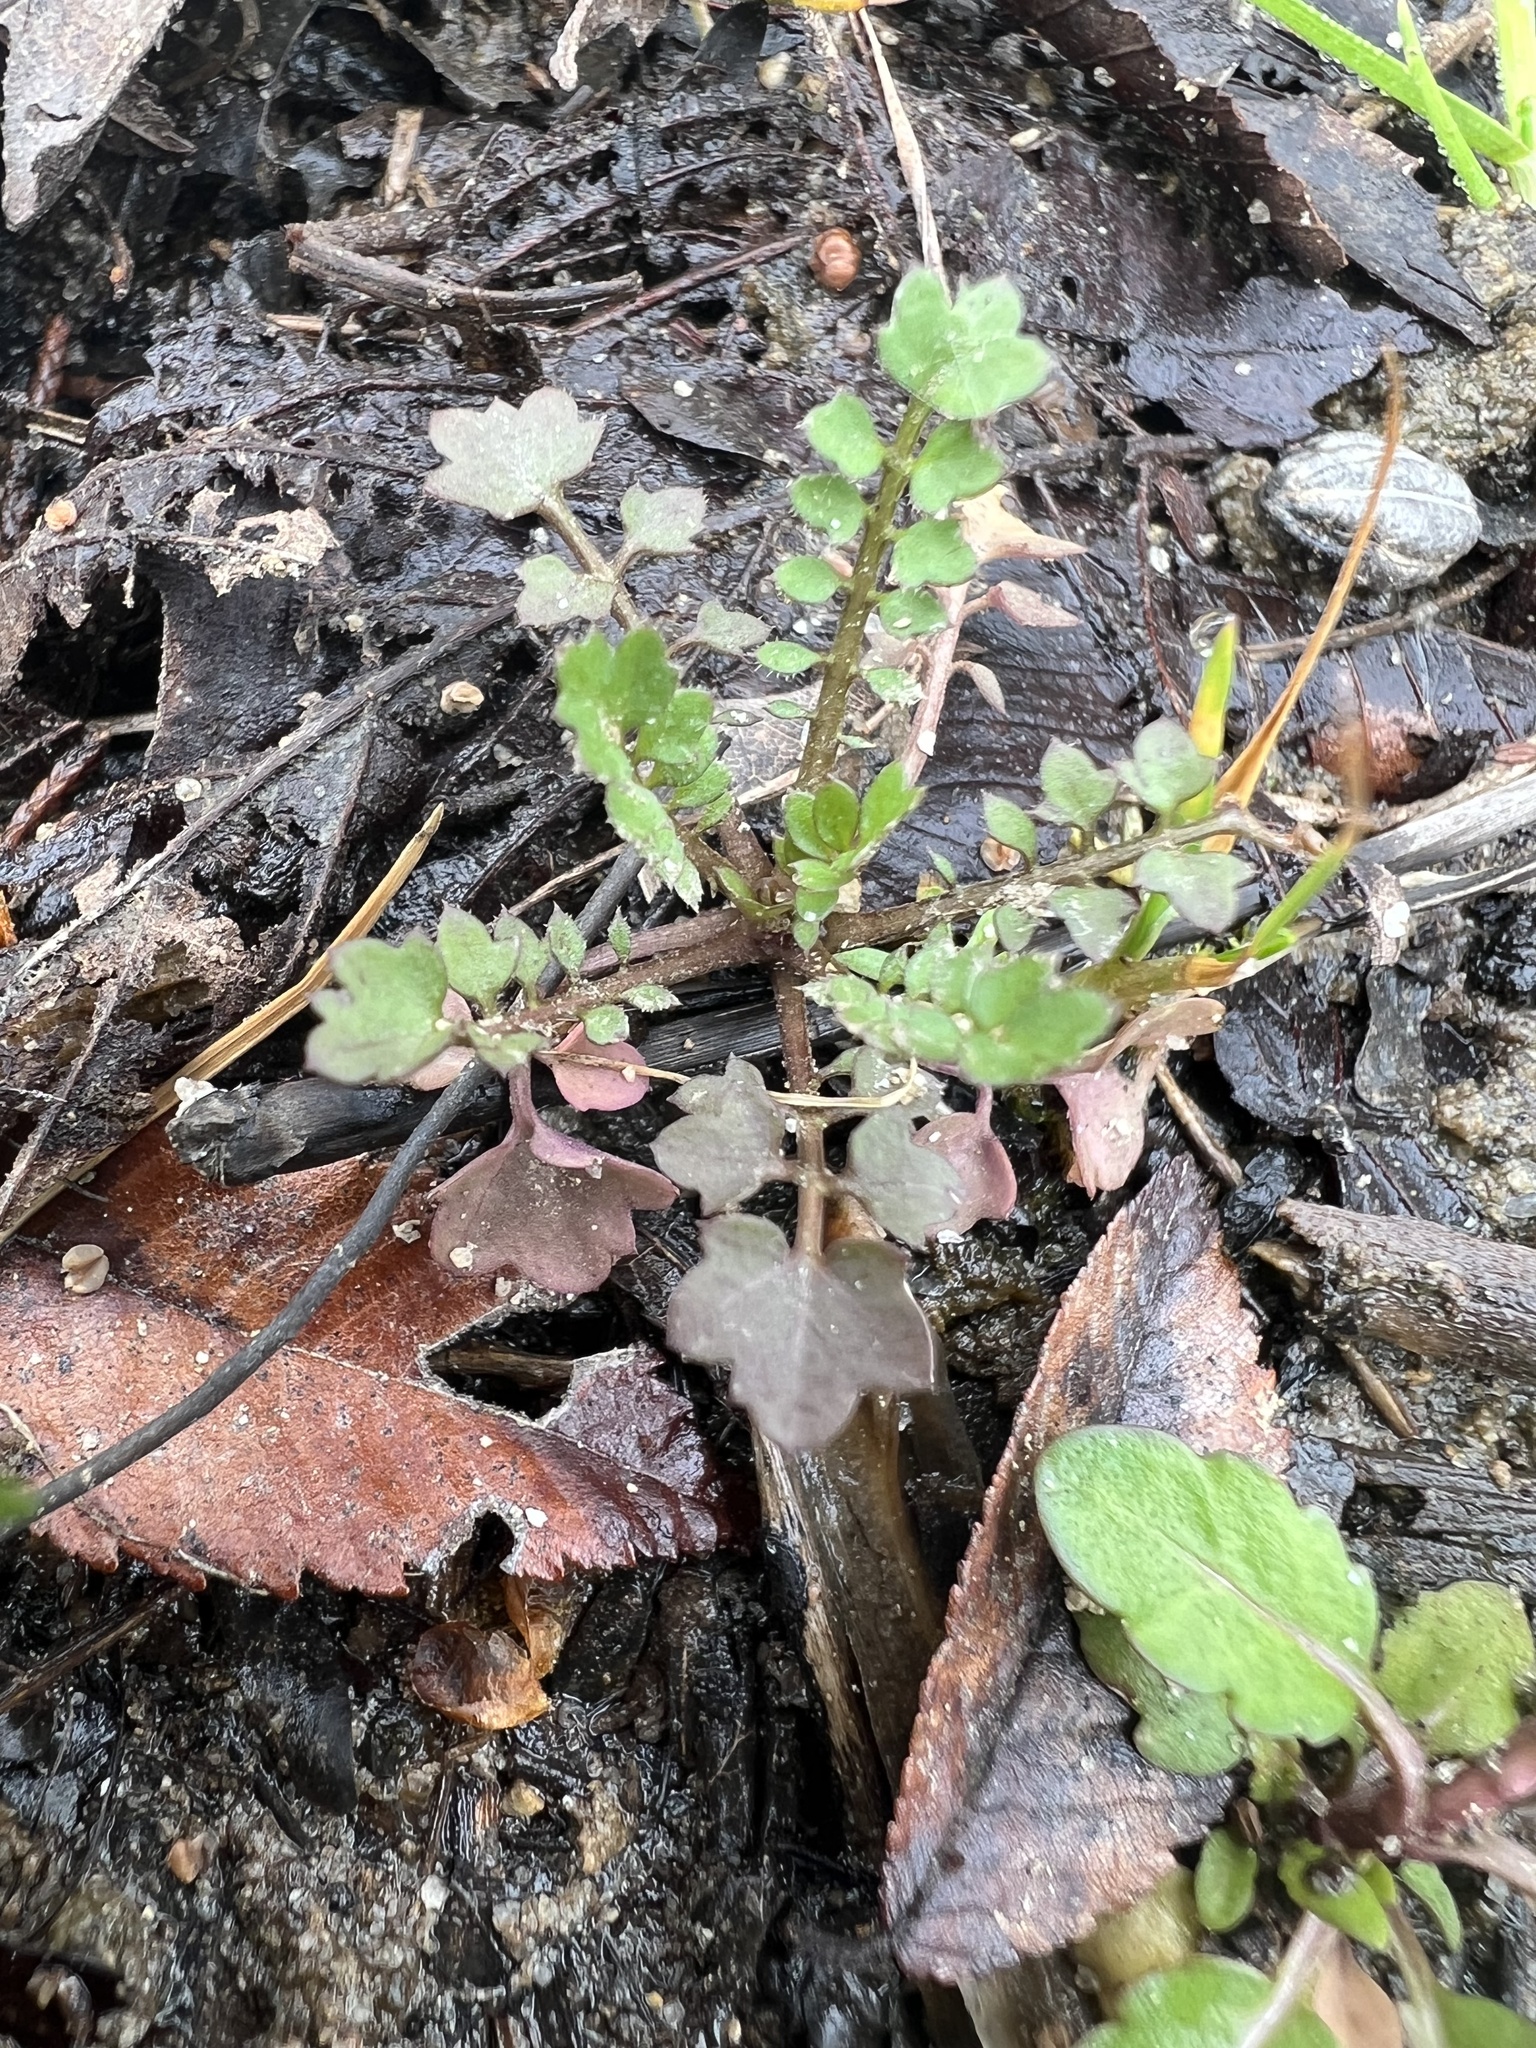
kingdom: Plantae
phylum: Tracheophyta
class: Magnoliopsida
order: Brassicales
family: Brassicaceae
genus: Cardamine
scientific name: Cardamine hirsuta
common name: Hairy bittercress
